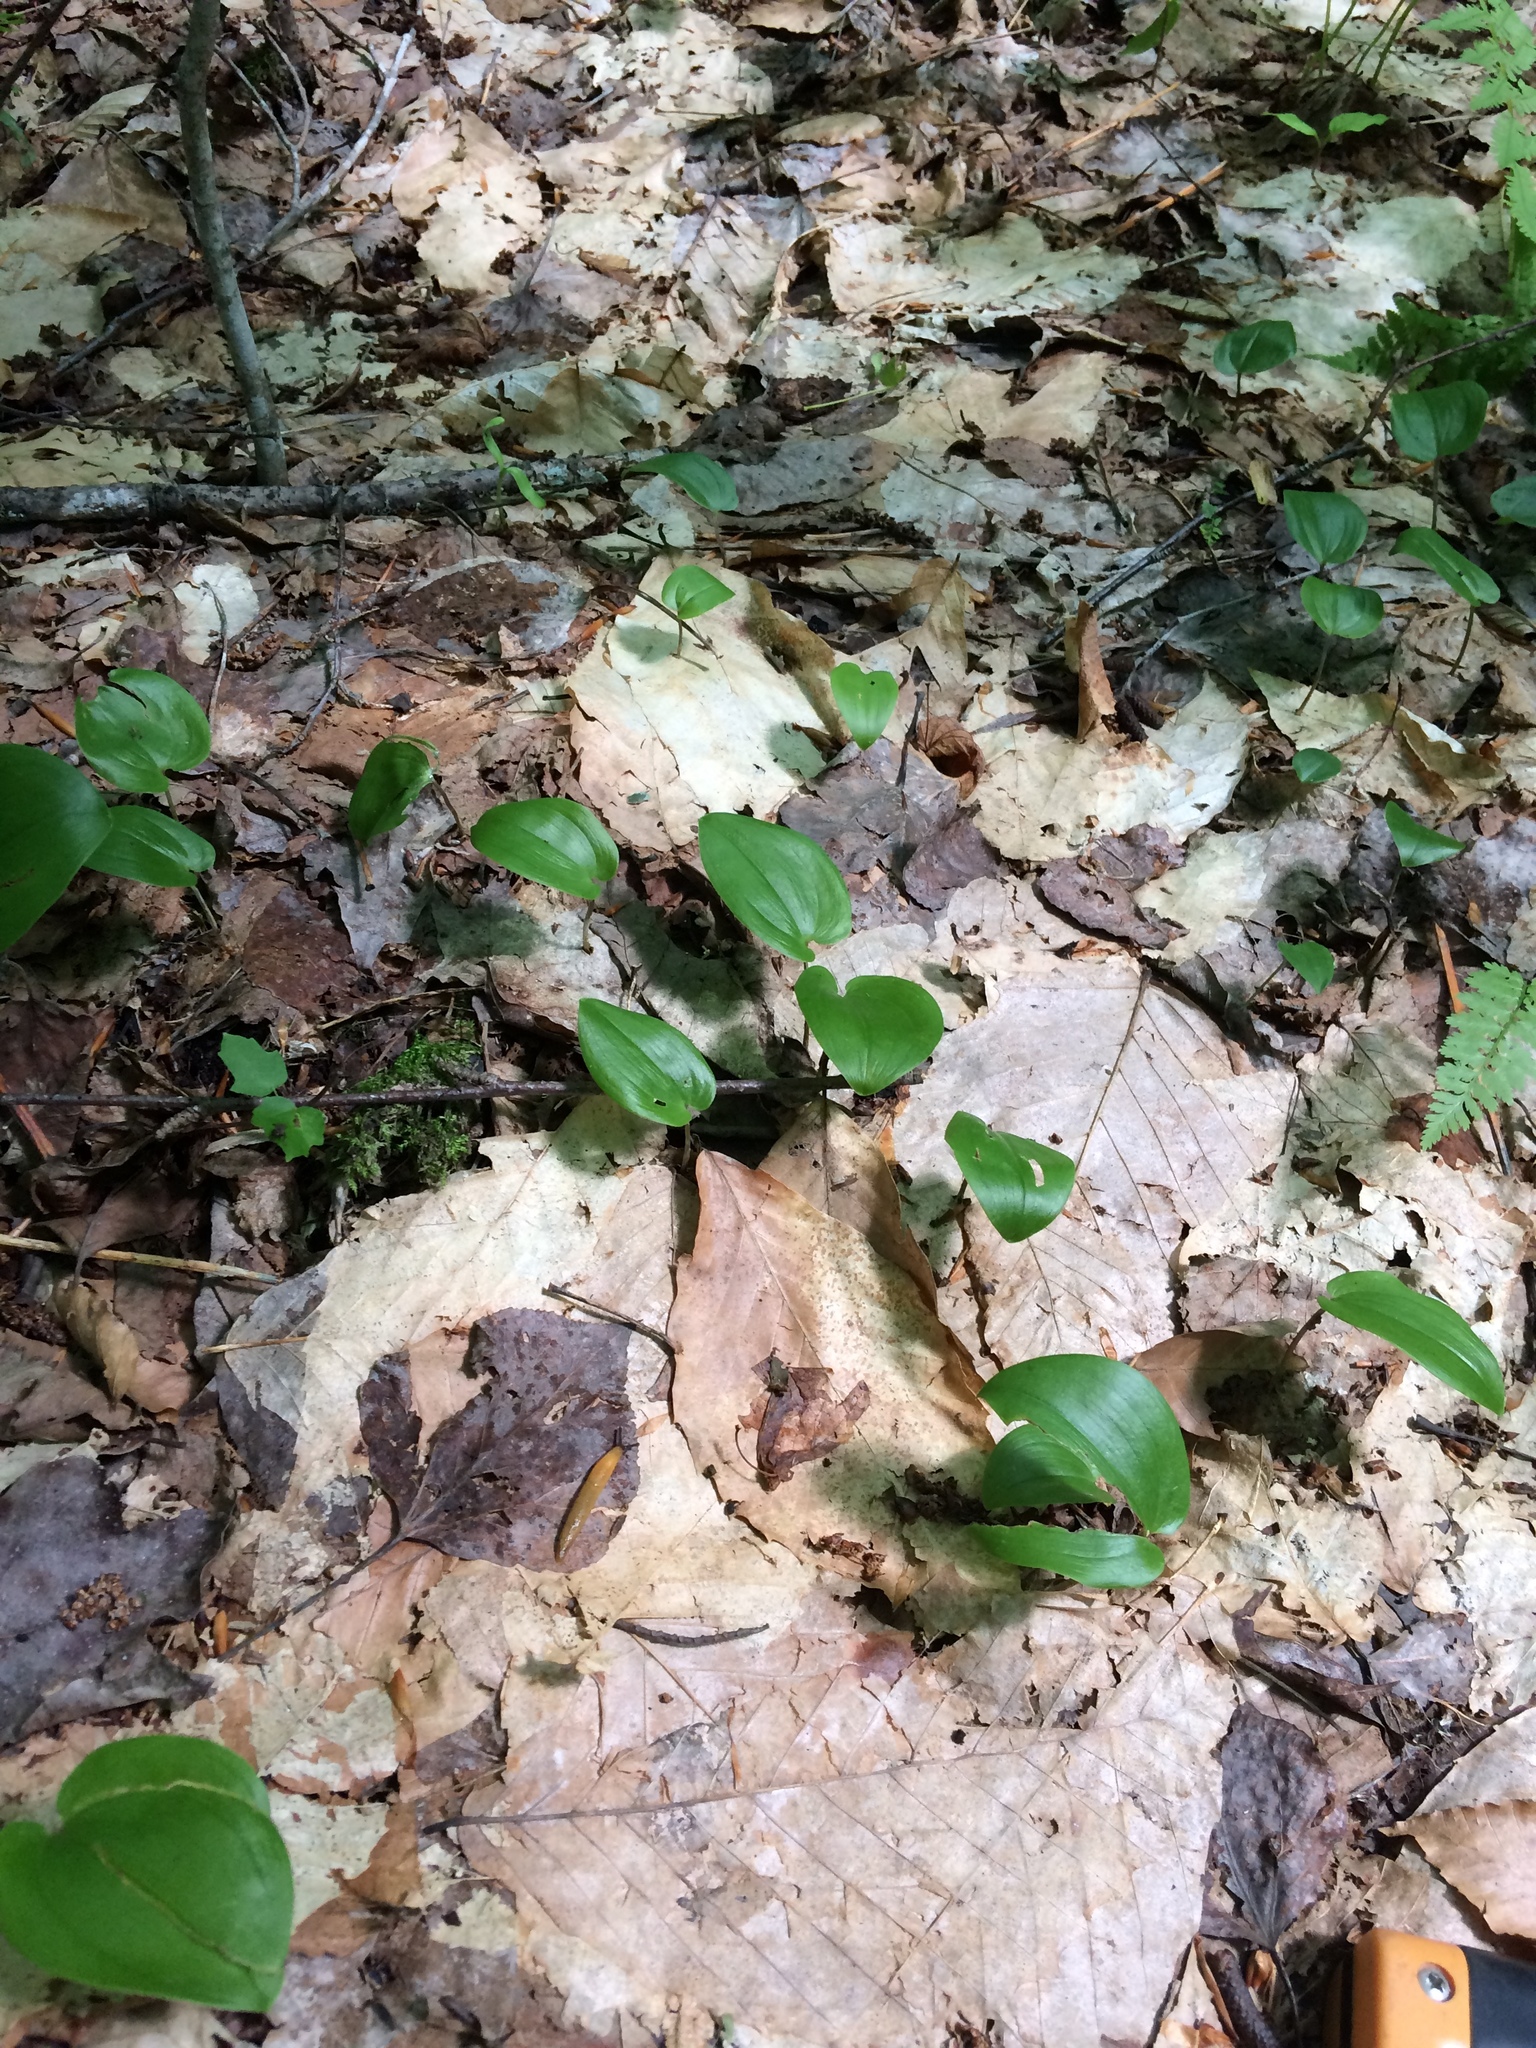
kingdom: Plantae
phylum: Tracheophyta
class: Liliopsida
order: Asparagales
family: Asparagaceae
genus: Maianthemum
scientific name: Maianthemum canadense
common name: False lily-of-the-valley
